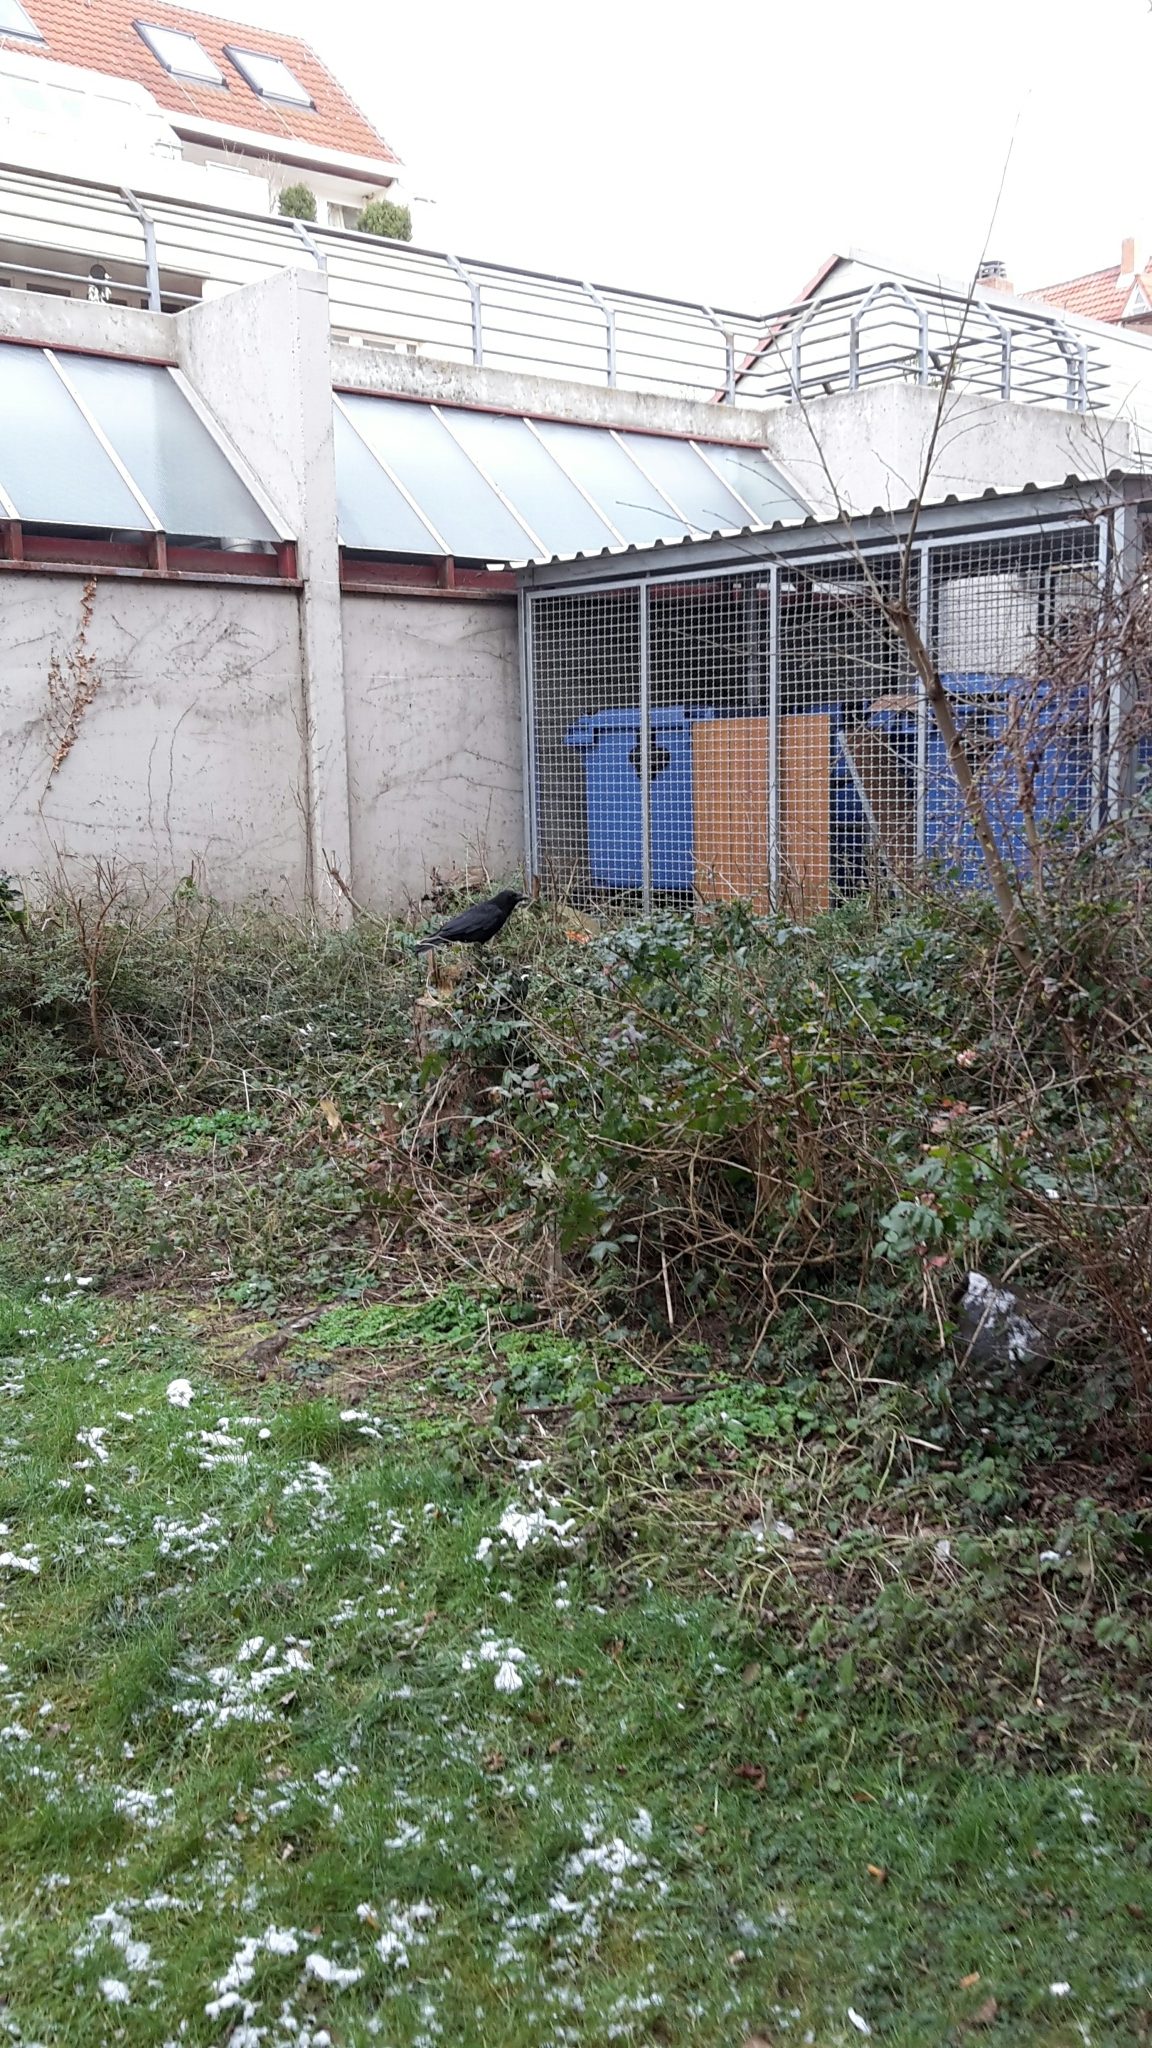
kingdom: Animalia
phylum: Chordata
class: Aves
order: Passeriformes
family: Corvidae
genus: Corvus
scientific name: Corvus corone
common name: Carrion crow
